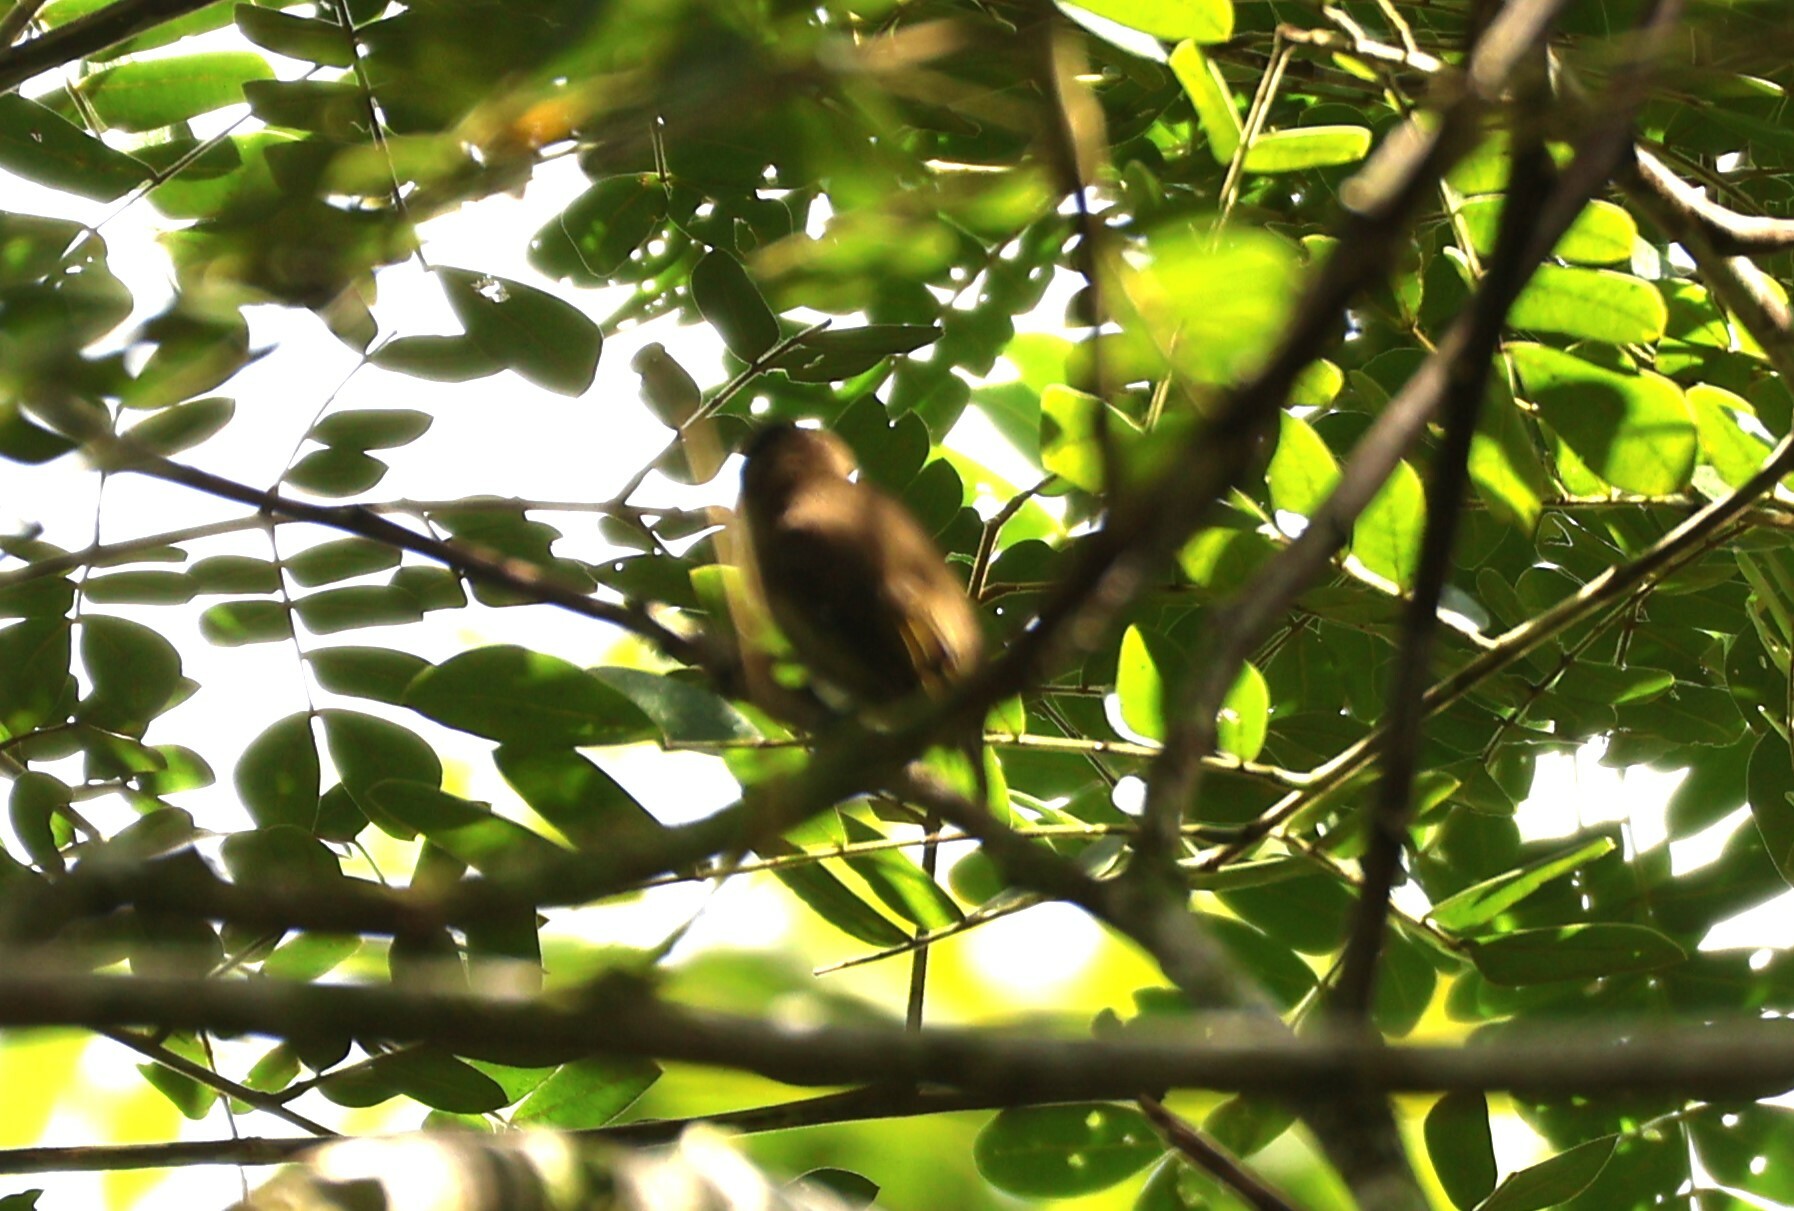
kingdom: Animalia
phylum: Chordata
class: Aves
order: Piciformes
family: Picidae
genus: Picumnus
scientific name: Picumnus olivaceus
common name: Olivaceous piculet
